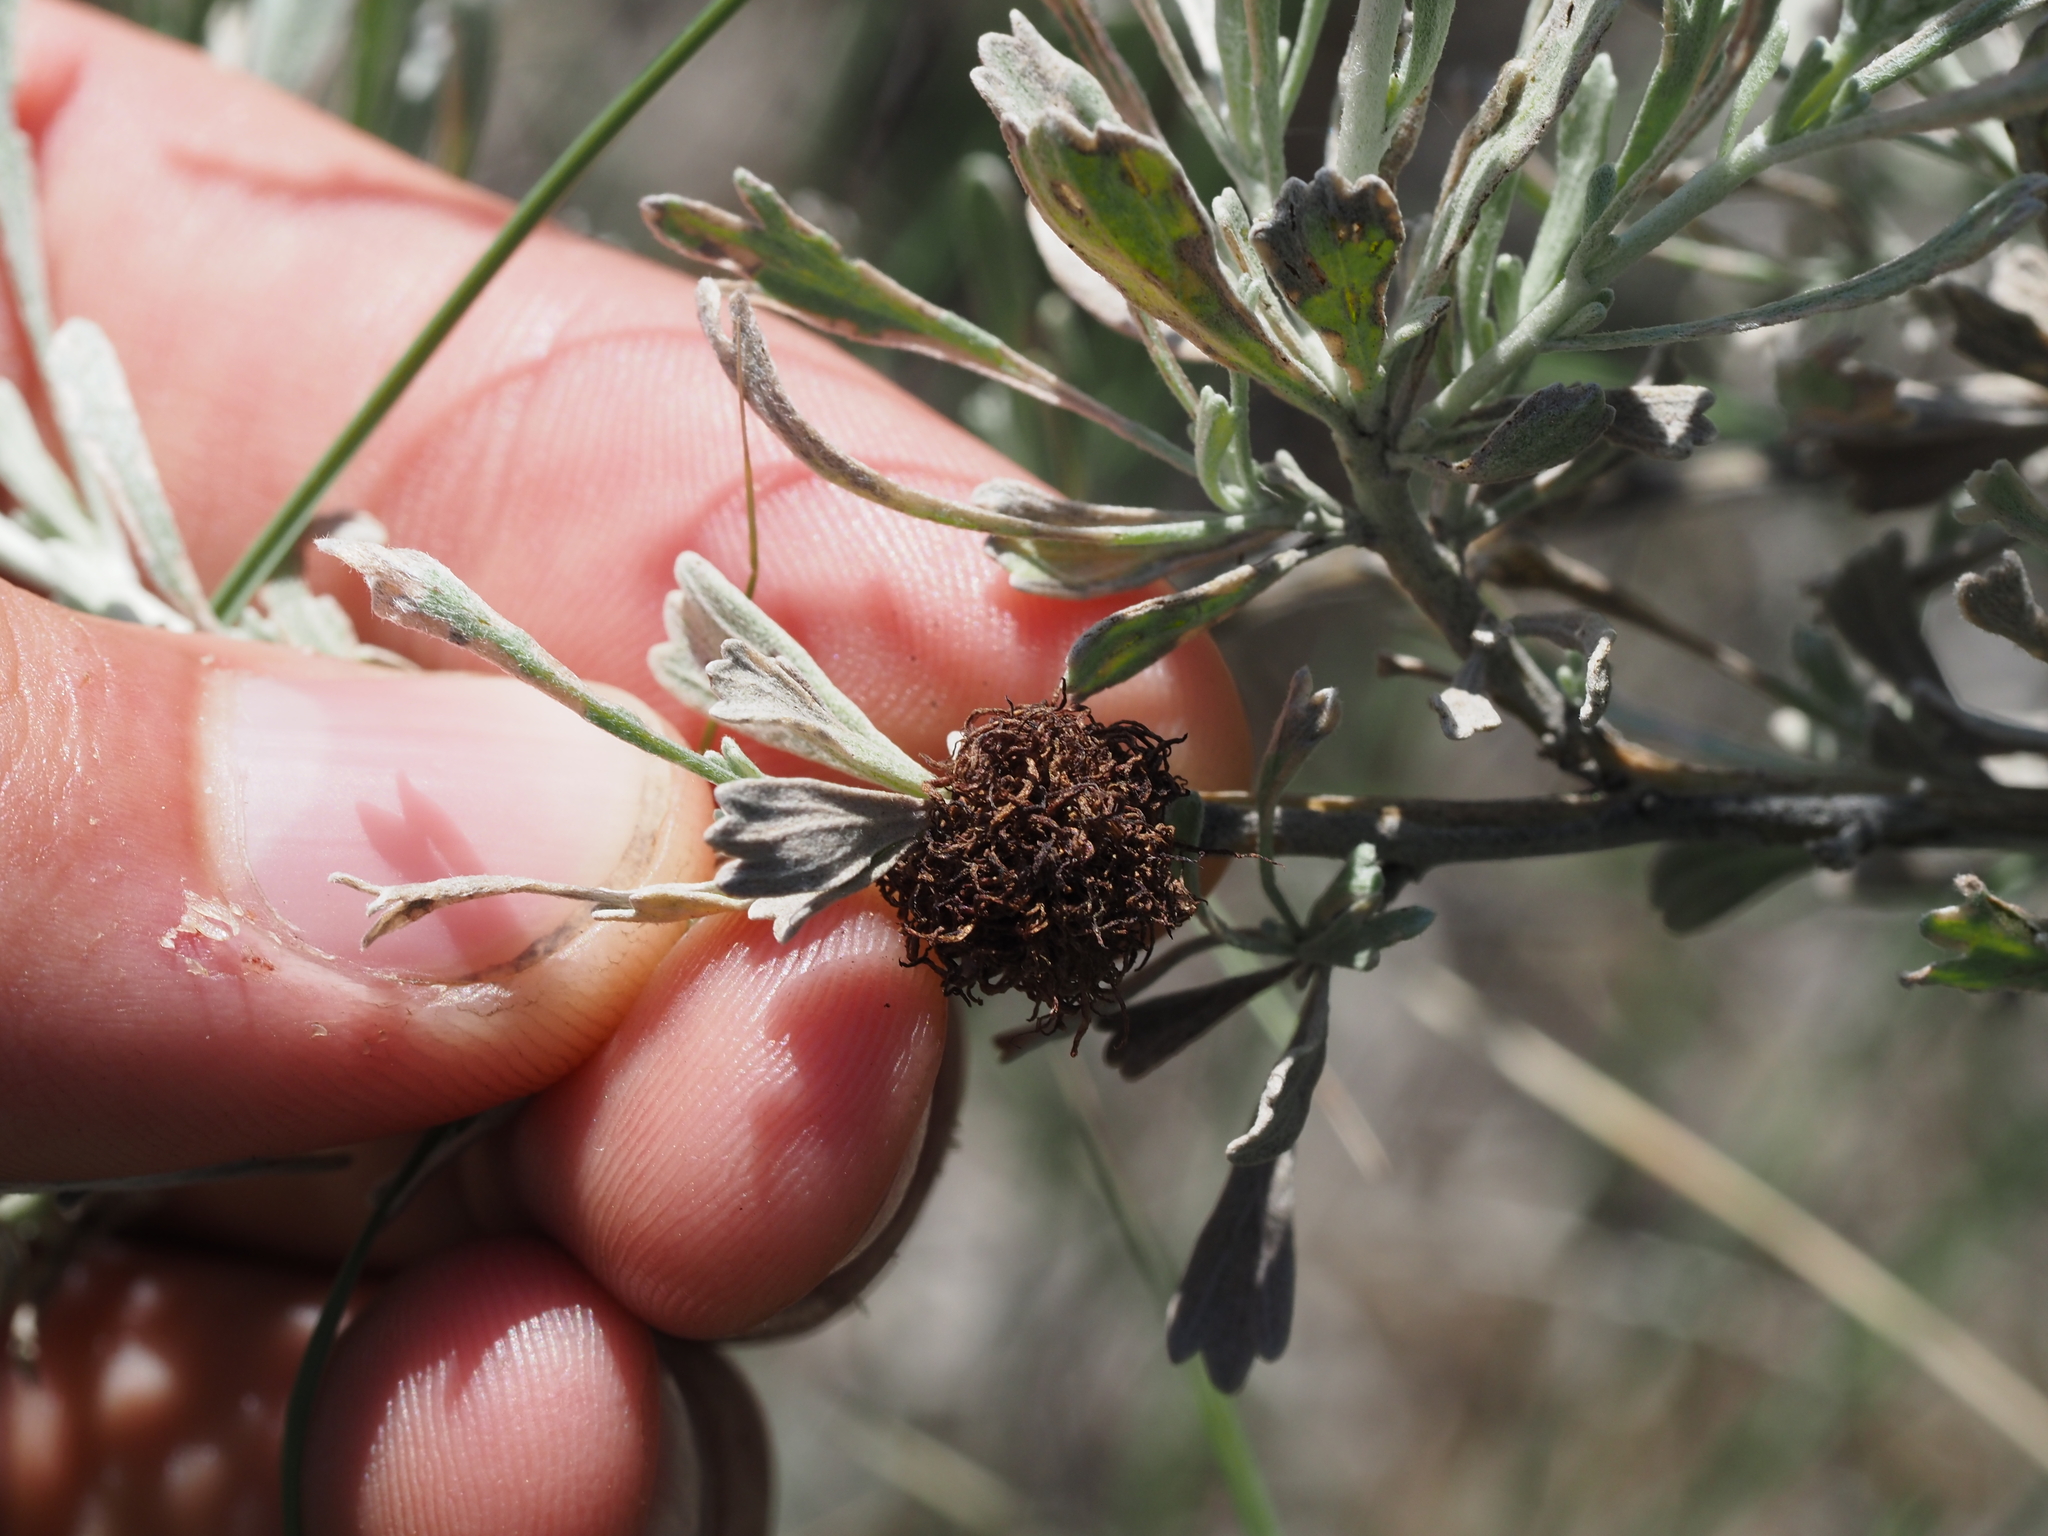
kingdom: Animalia
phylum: Arthropoda
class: Insecta
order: Diptera
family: Cecidomyiidae
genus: Rhopalomyia
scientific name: Rhopalomyia medusa
